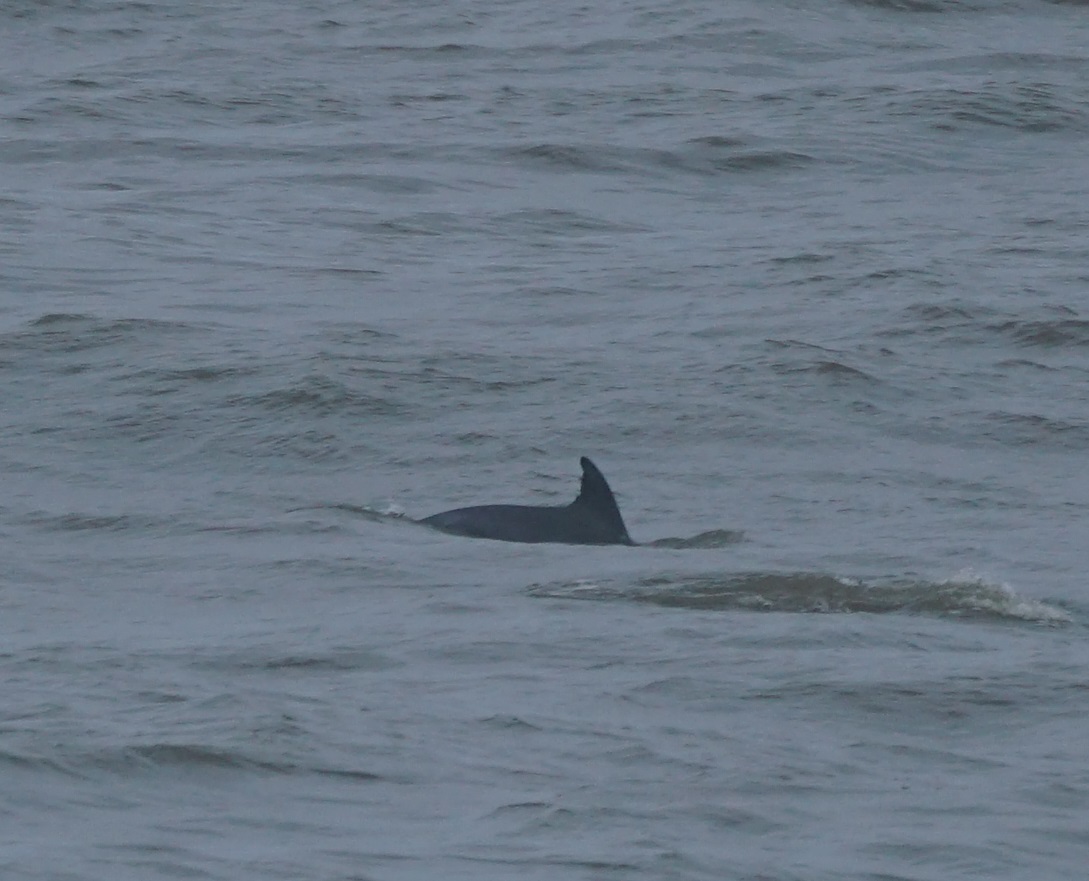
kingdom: Animalia
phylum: Chordata
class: Mammalia
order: Cetacea
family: Delphinidae
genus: Tursiops
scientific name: Tursiops truncatus
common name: Bottlenose dolphin
